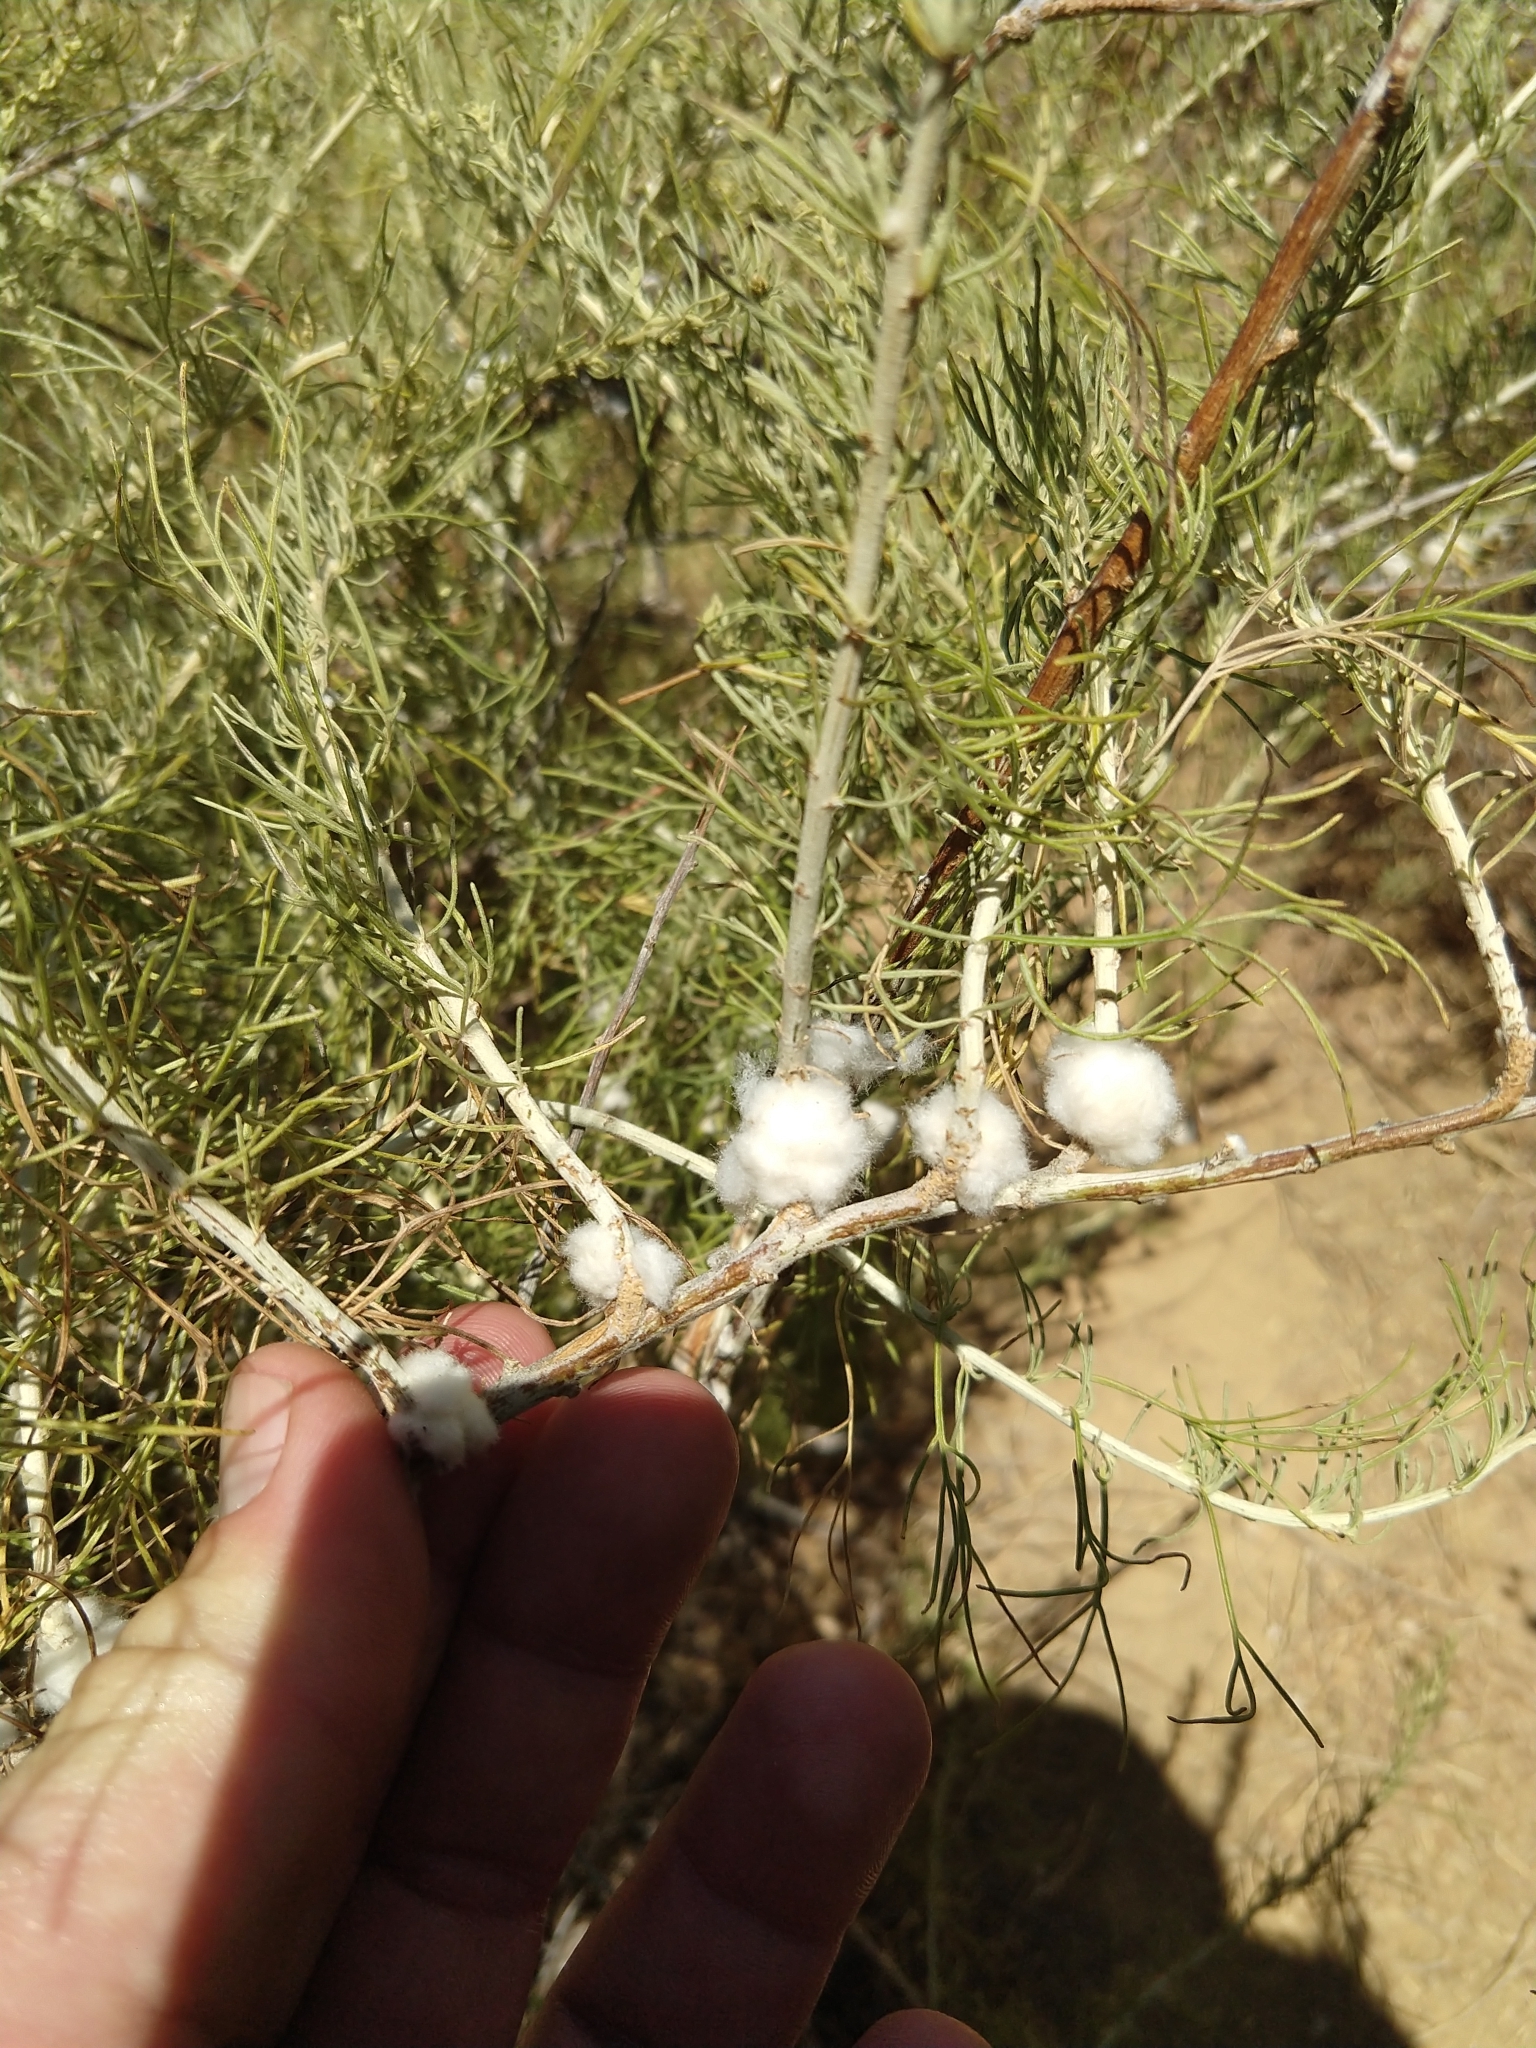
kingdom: Animalia
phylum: Arthropoda
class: Insecta
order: Diptera
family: Cecidomyiidae
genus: Rhopalomyia
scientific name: Rhopalomyia floccosa
